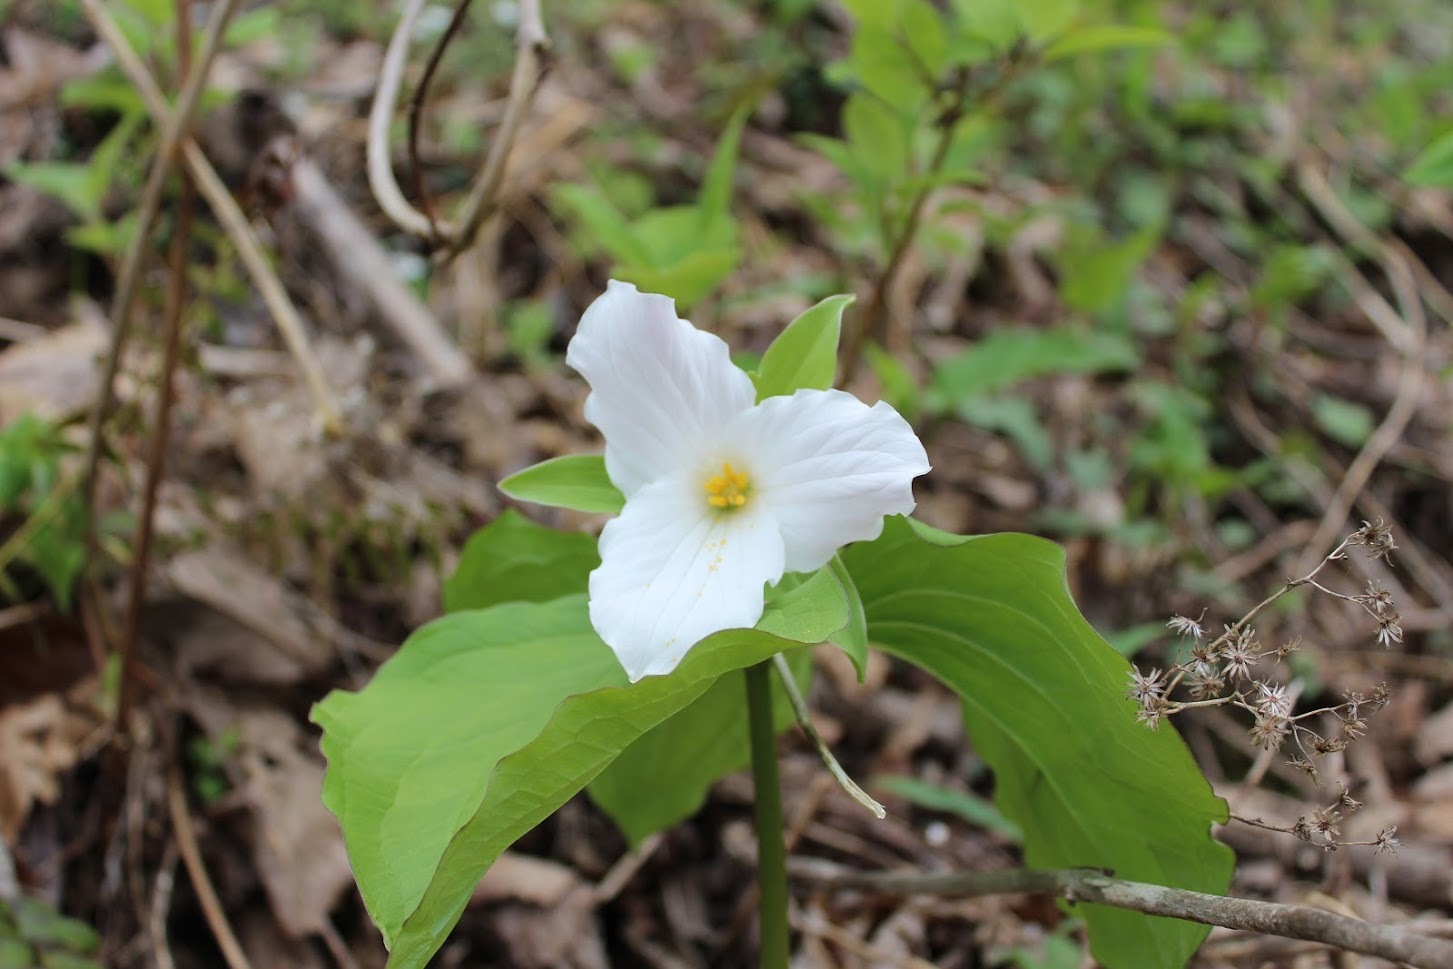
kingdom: Plantae
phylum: Tracheophyta
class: Liliopsida
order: Liliales
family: Melanthiaceae
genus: Trillium
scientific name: Trillium grandiflorum
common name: Great white trillium
